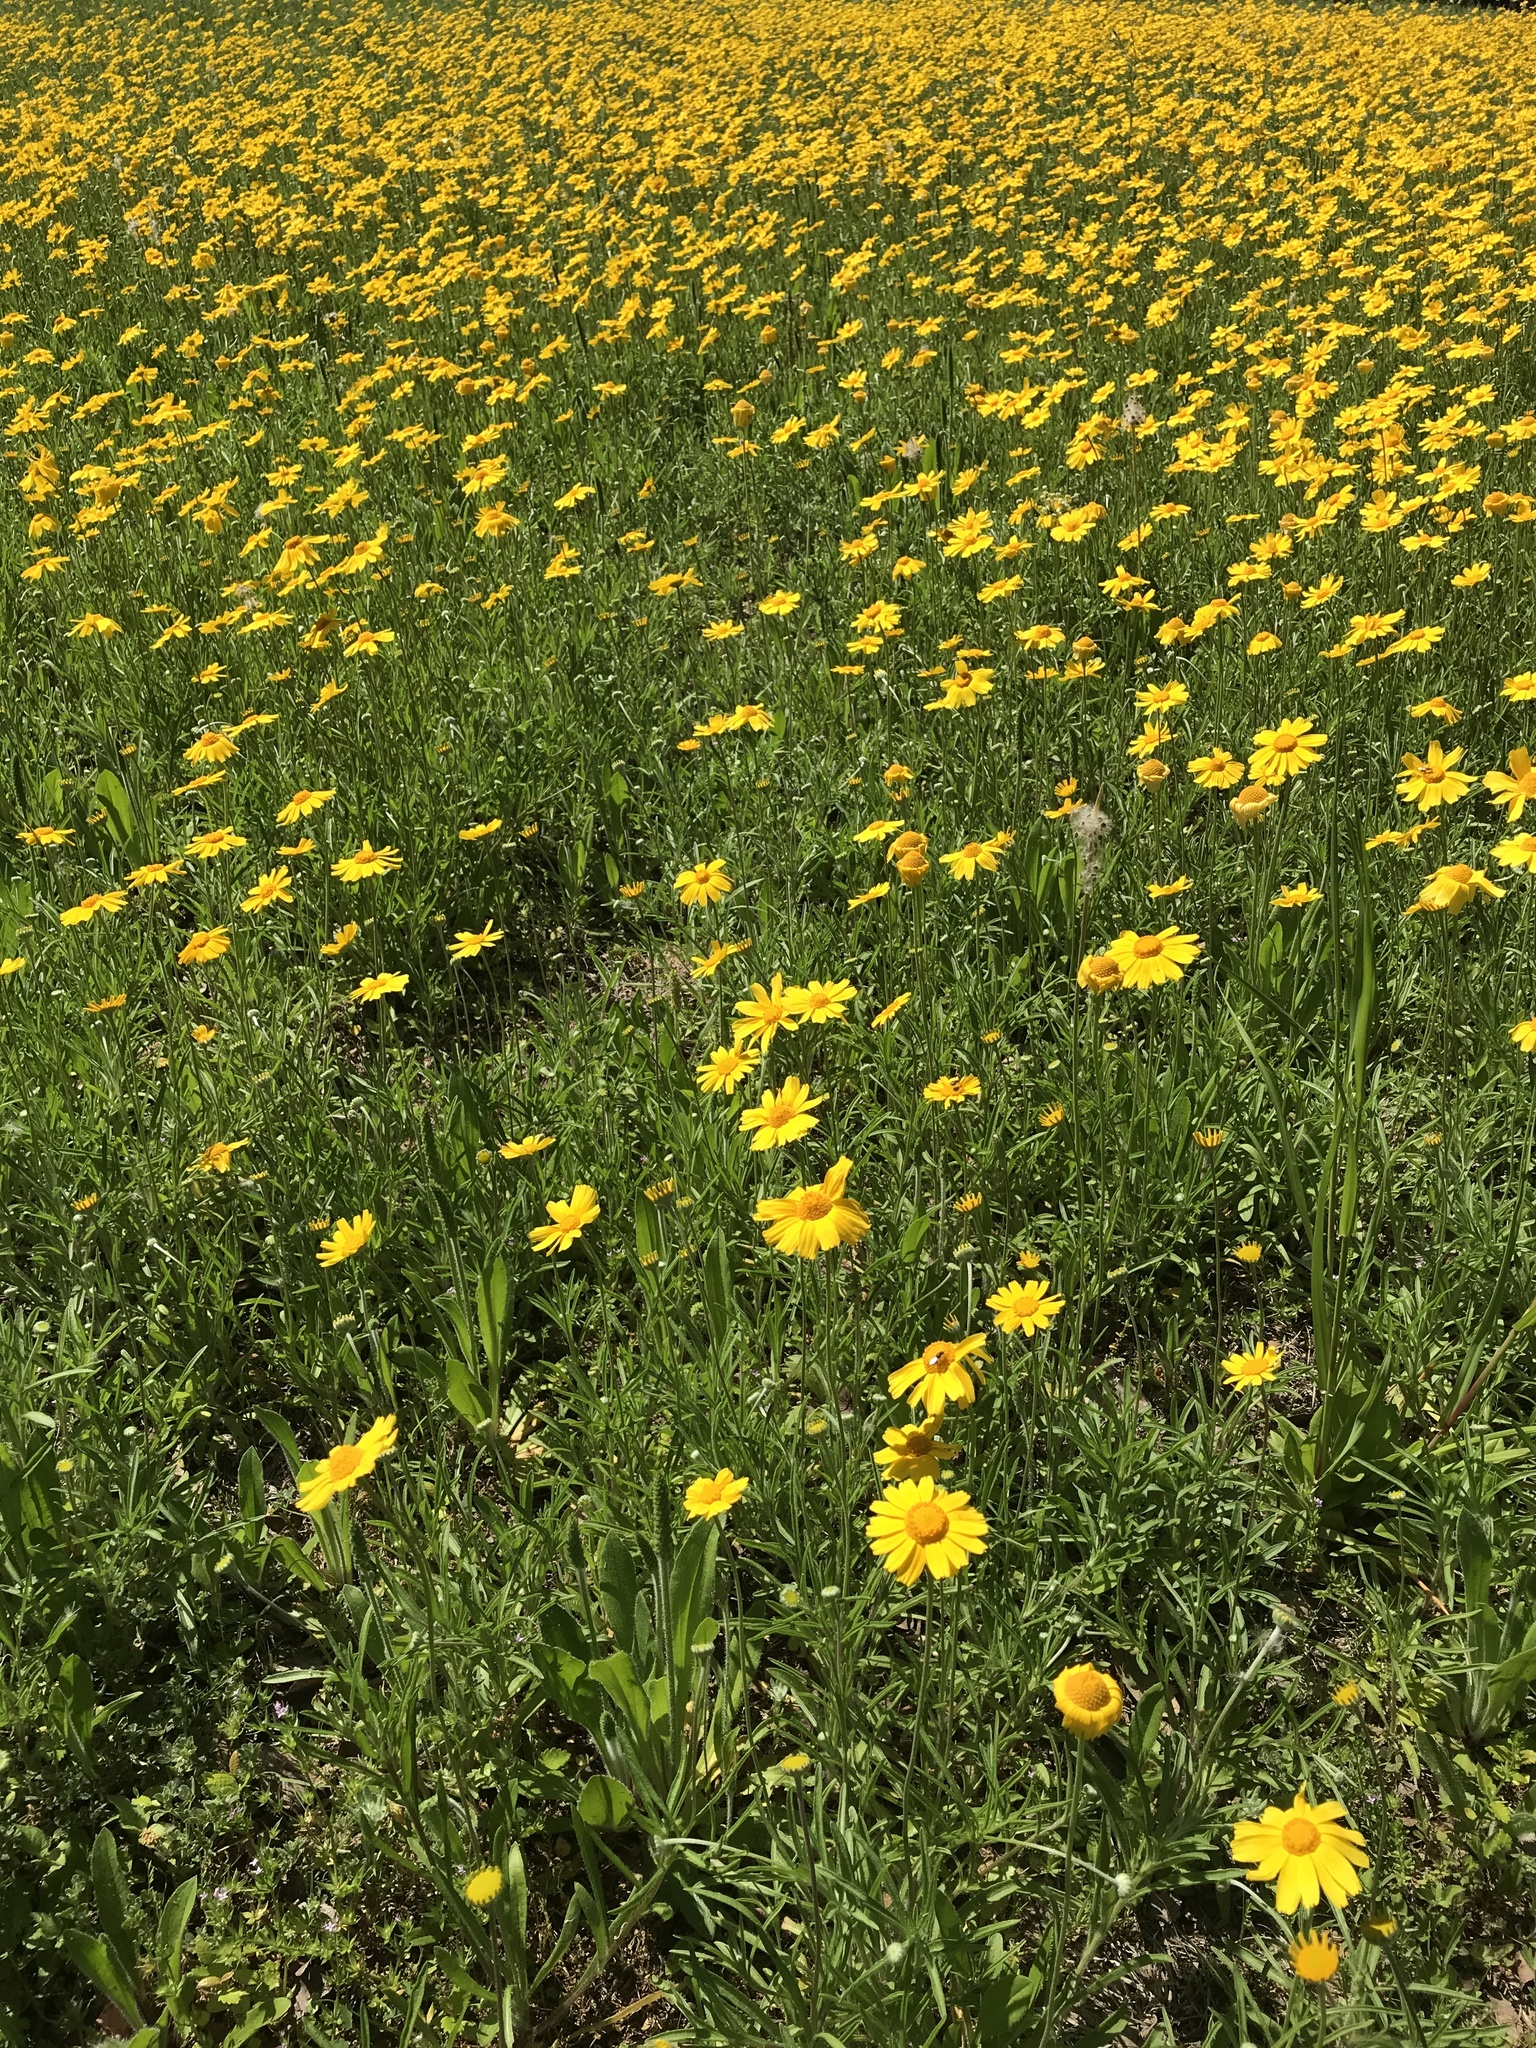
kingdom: Plantae
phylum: Tracheophyta
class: Magnoliopsida
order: Asterales
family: Asteraceae
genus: Tetraneuris
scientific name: Tetraneuris scaposa
